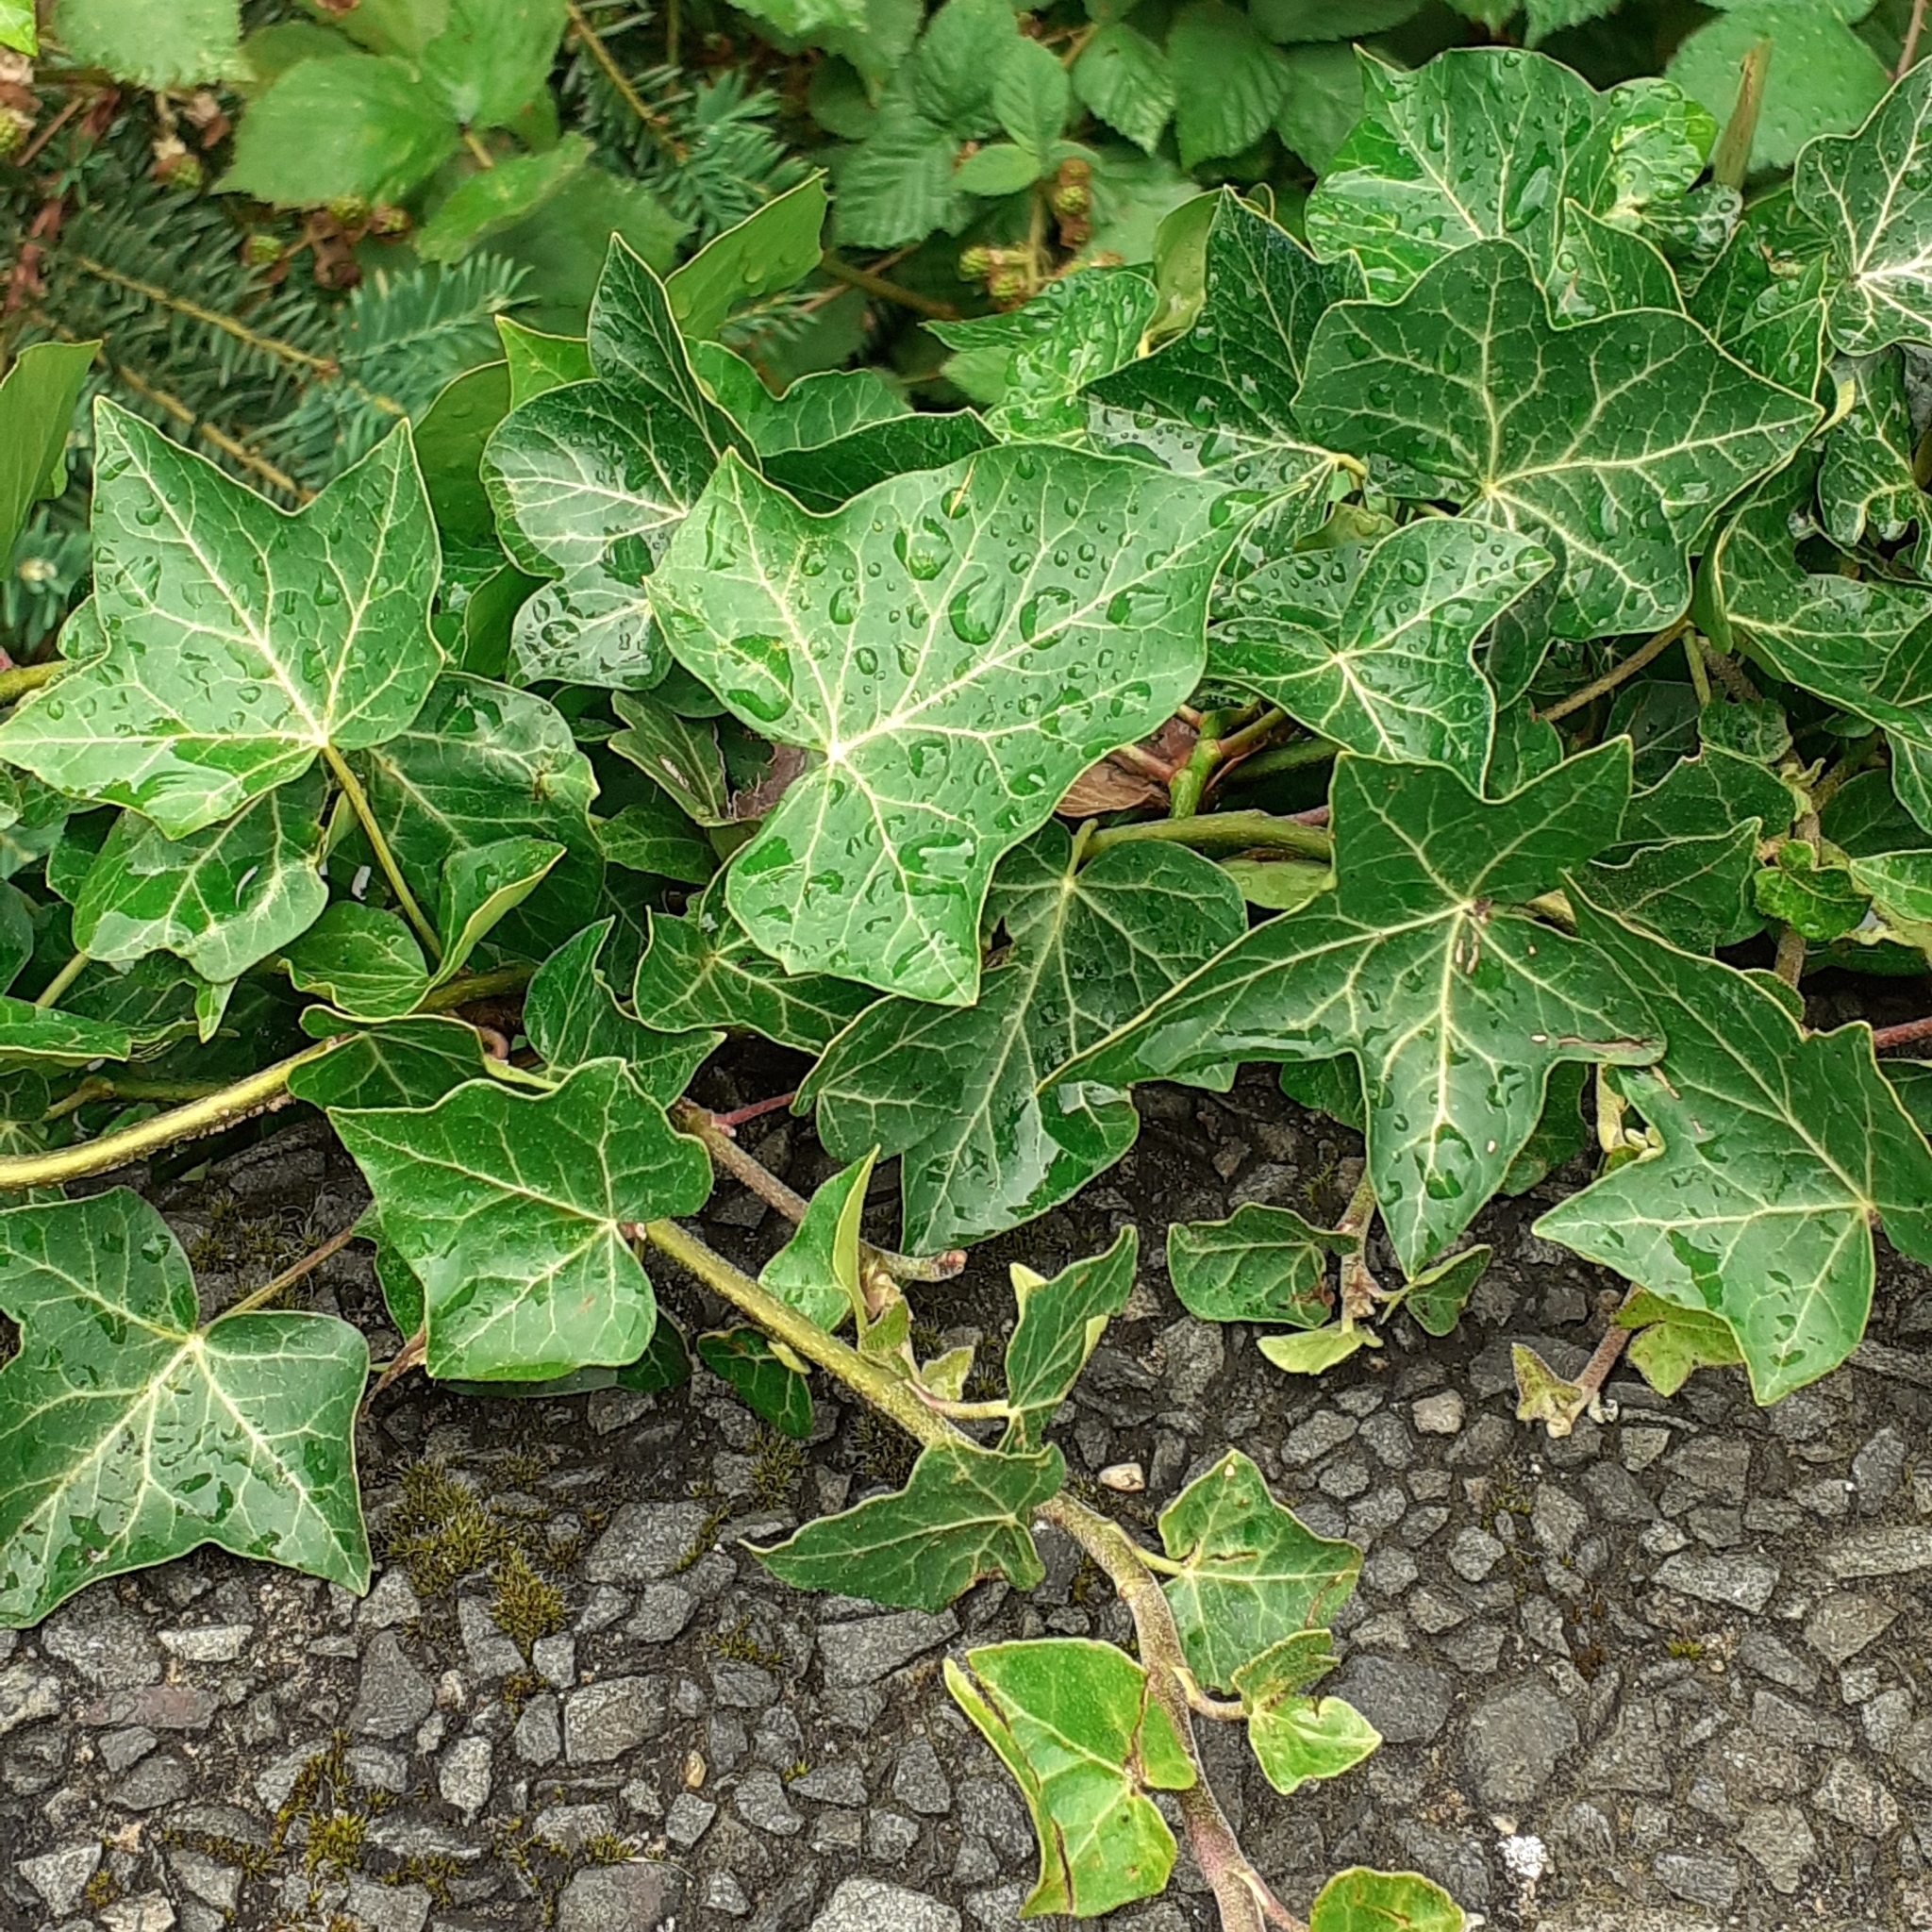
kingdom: Plantae
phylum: Tracheophyta
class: Magnoliopsida
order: Apiales
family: Araliaceae
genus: Hedera
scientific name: Hedera helix
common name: Ivy
